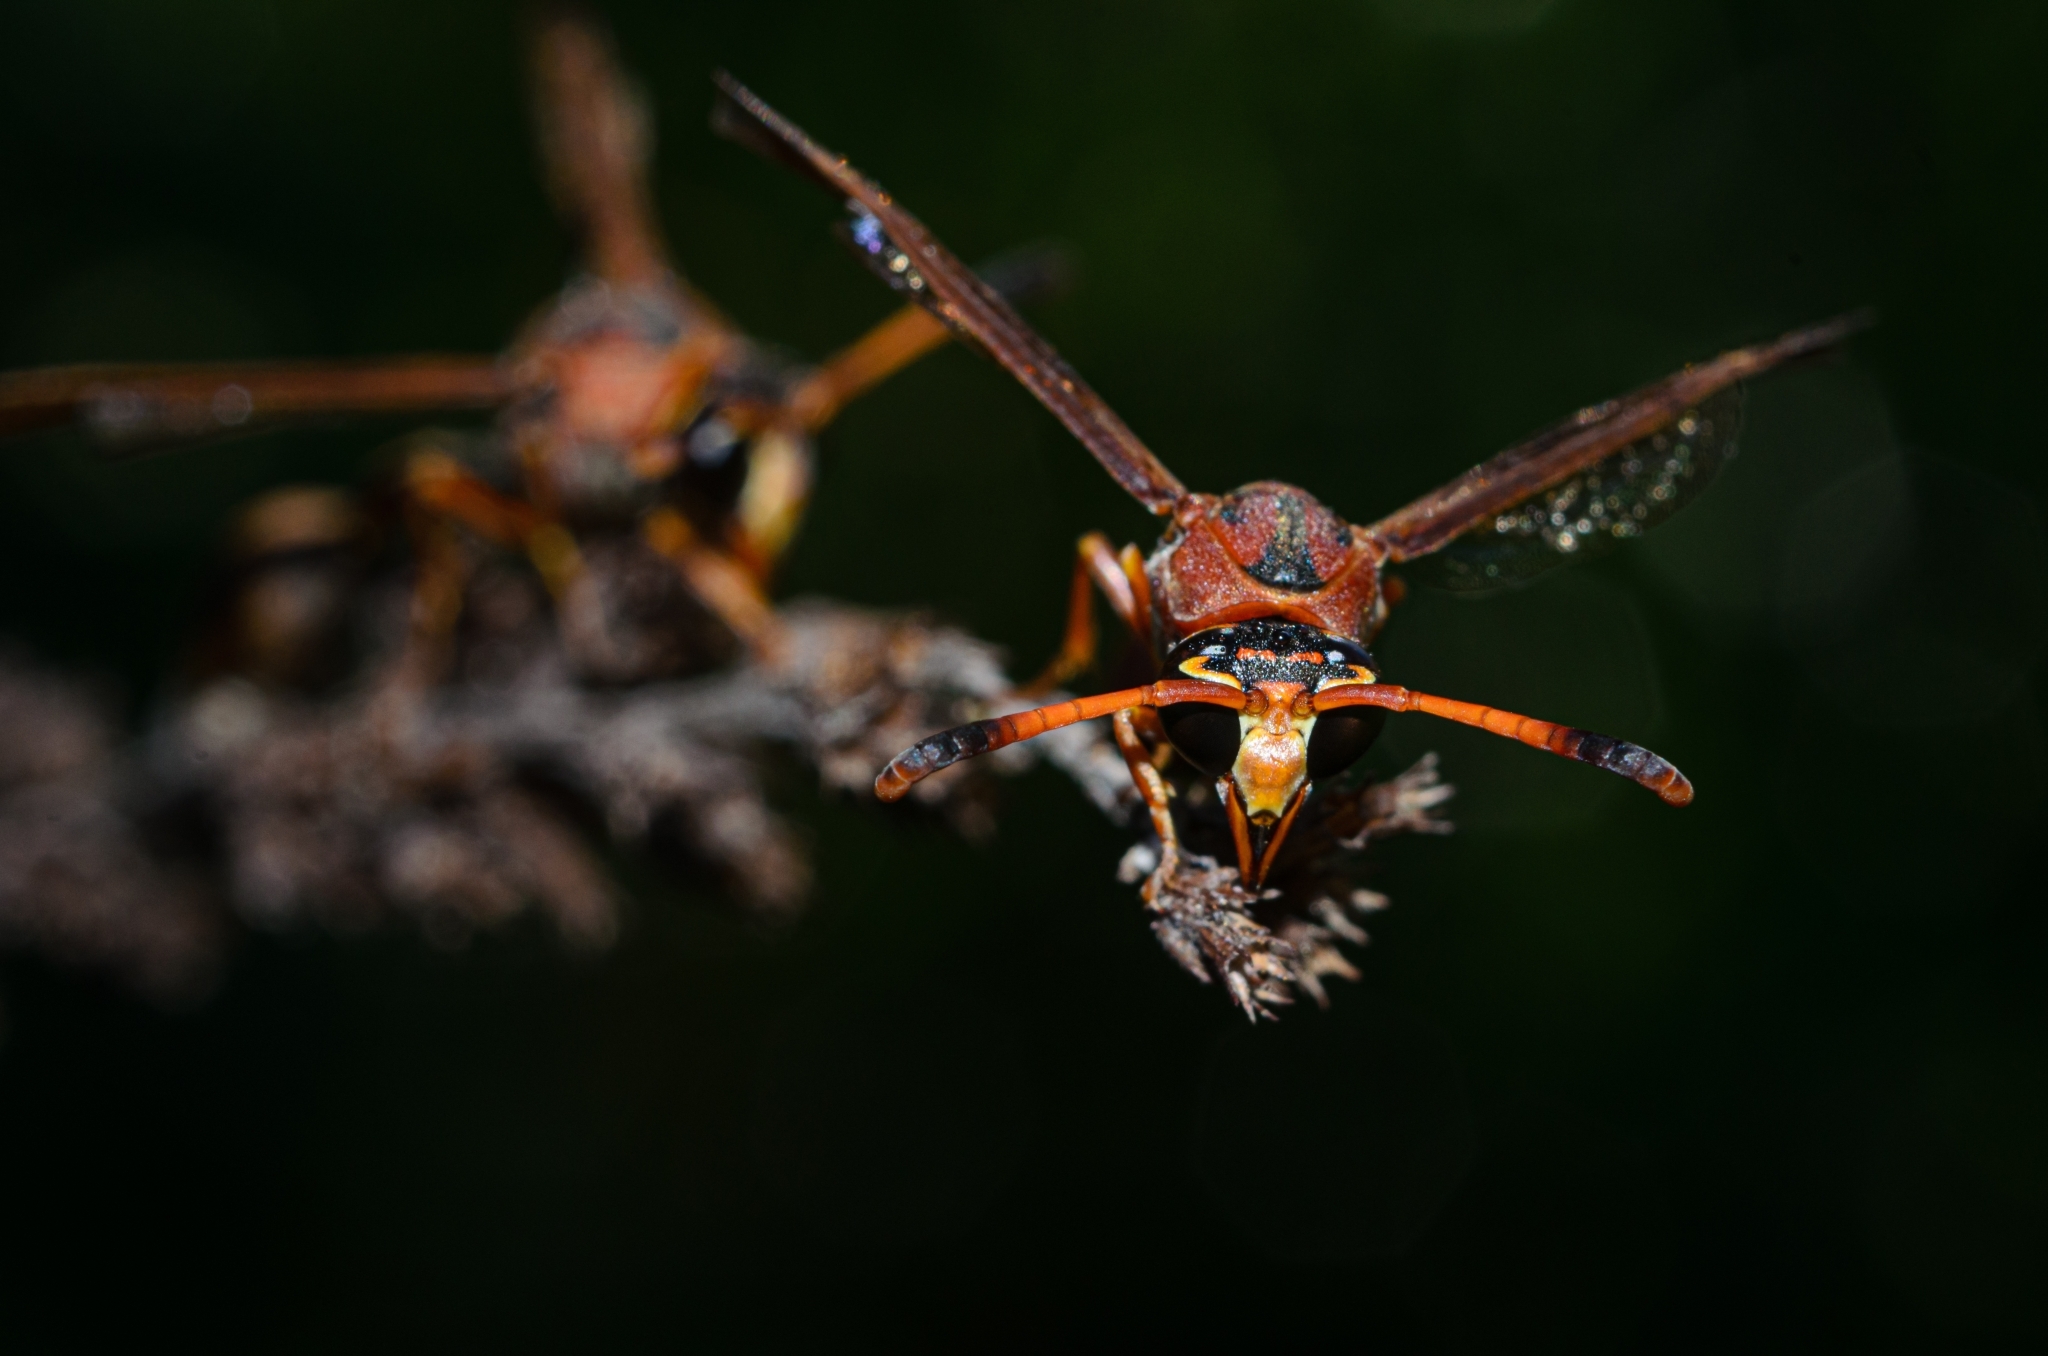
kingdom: Animalia
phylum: Arthropoda
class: Insecta
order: Hymenoptera
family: Eumenidae
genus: Zeta
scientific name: Zeta argillaceum
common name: Potter wasp
